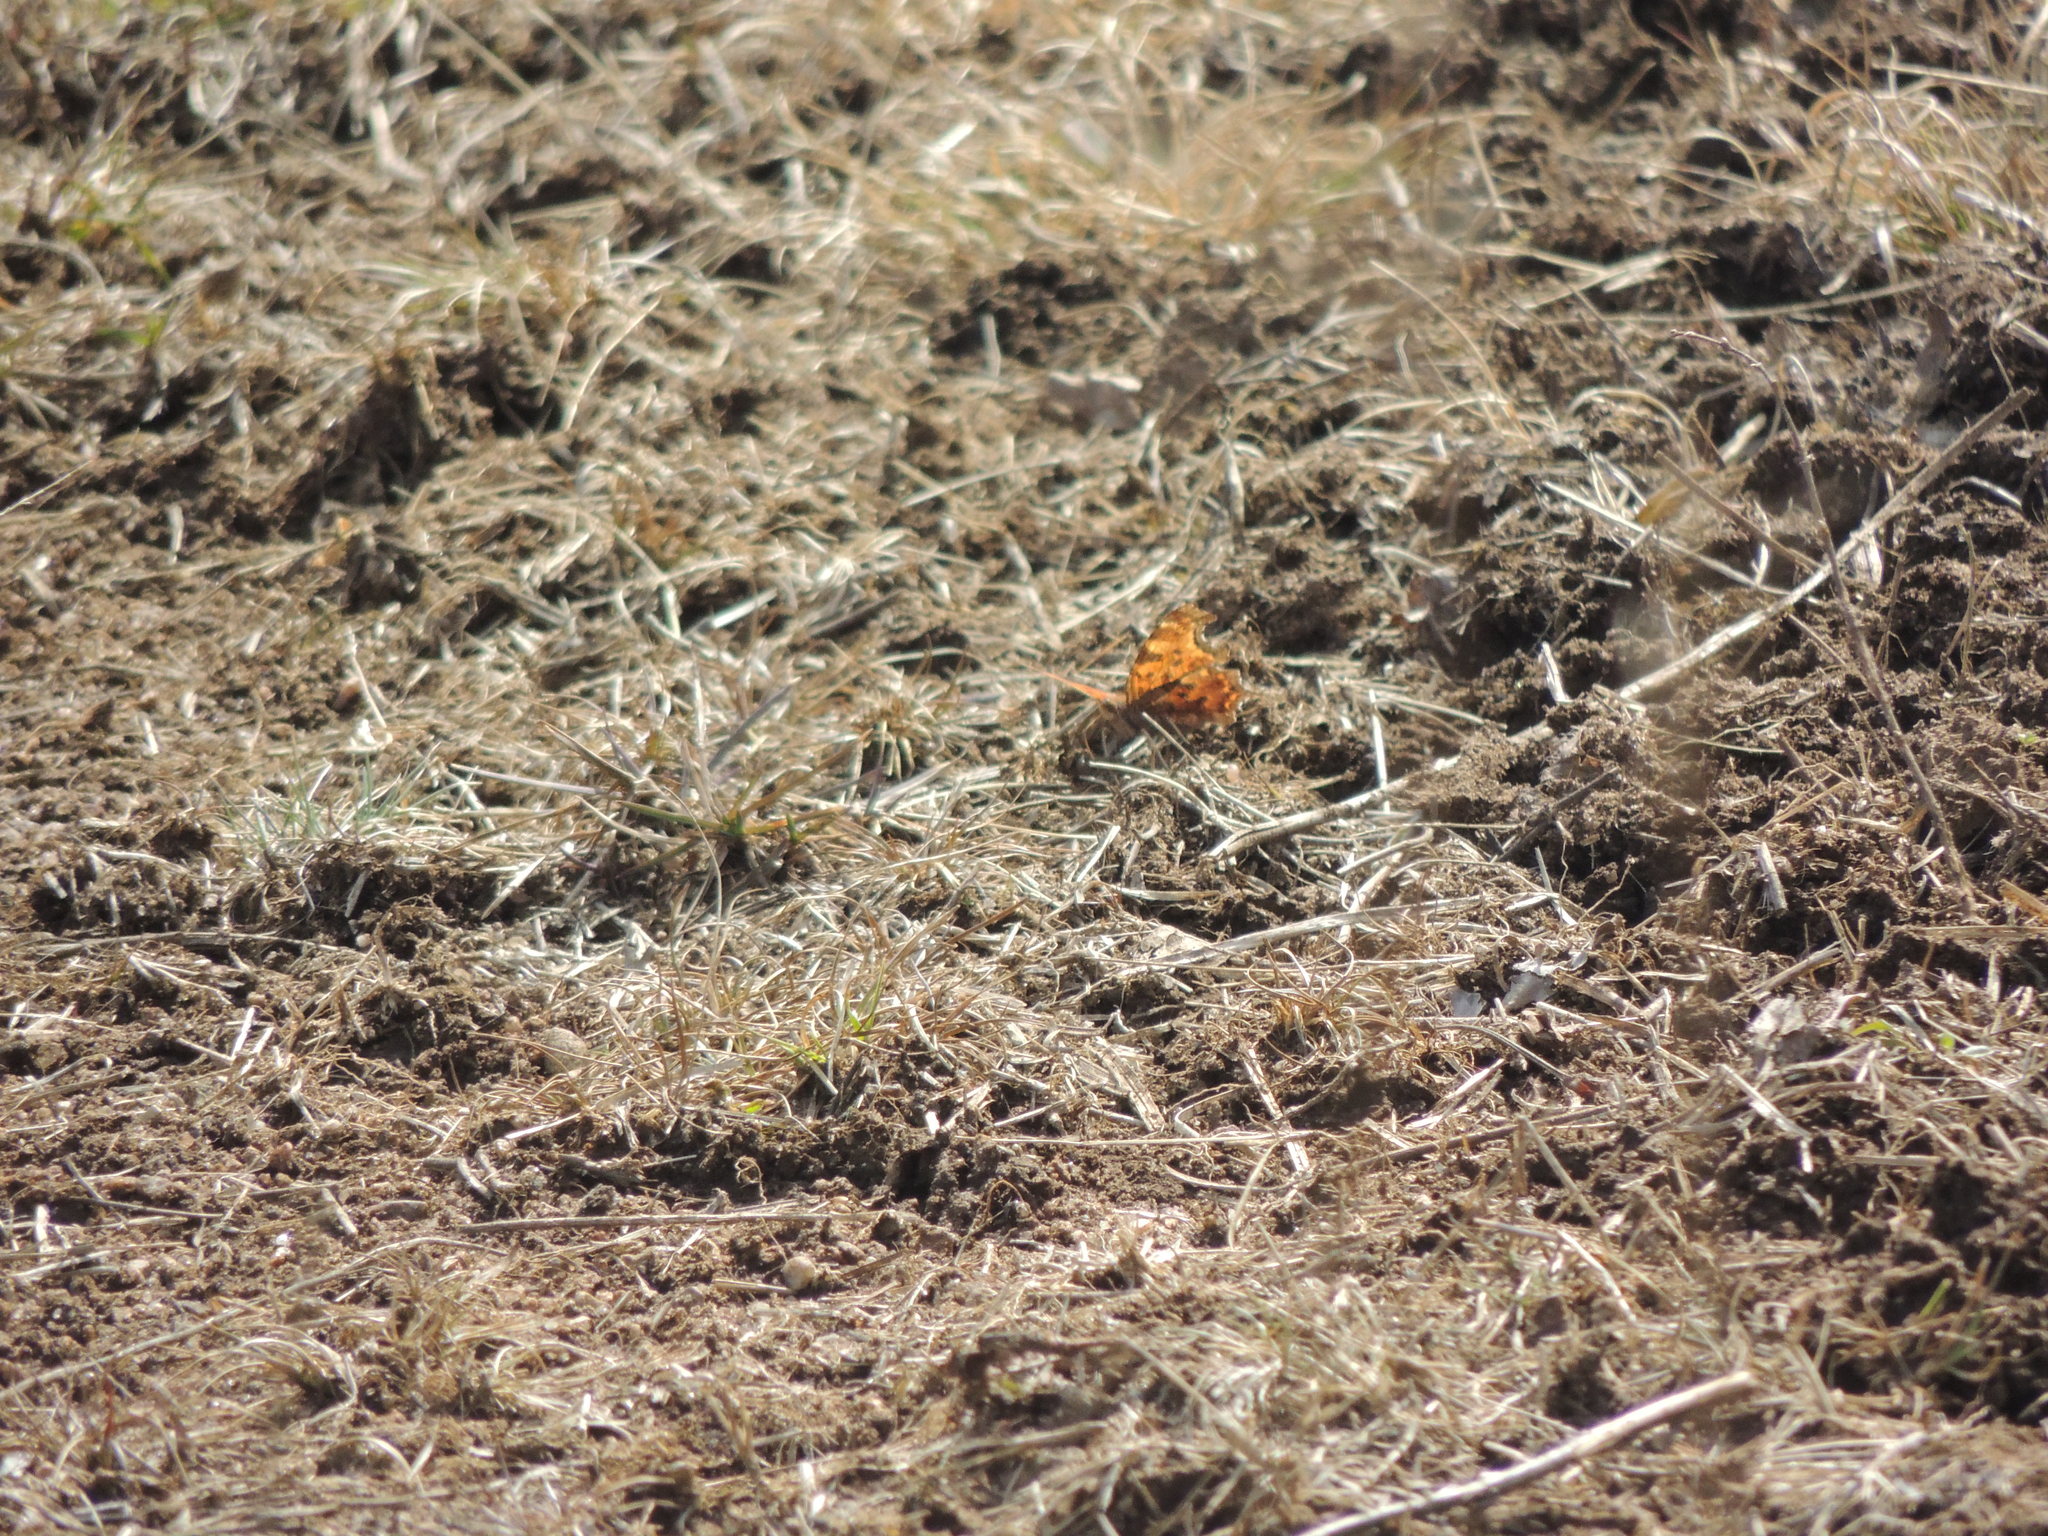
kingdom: Animalia
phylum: Arthropoda
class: Insecta
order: Lepidoptera
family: Nymphalidae
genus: Polygonia
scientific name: Polygonia comma
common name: Eastern comma
